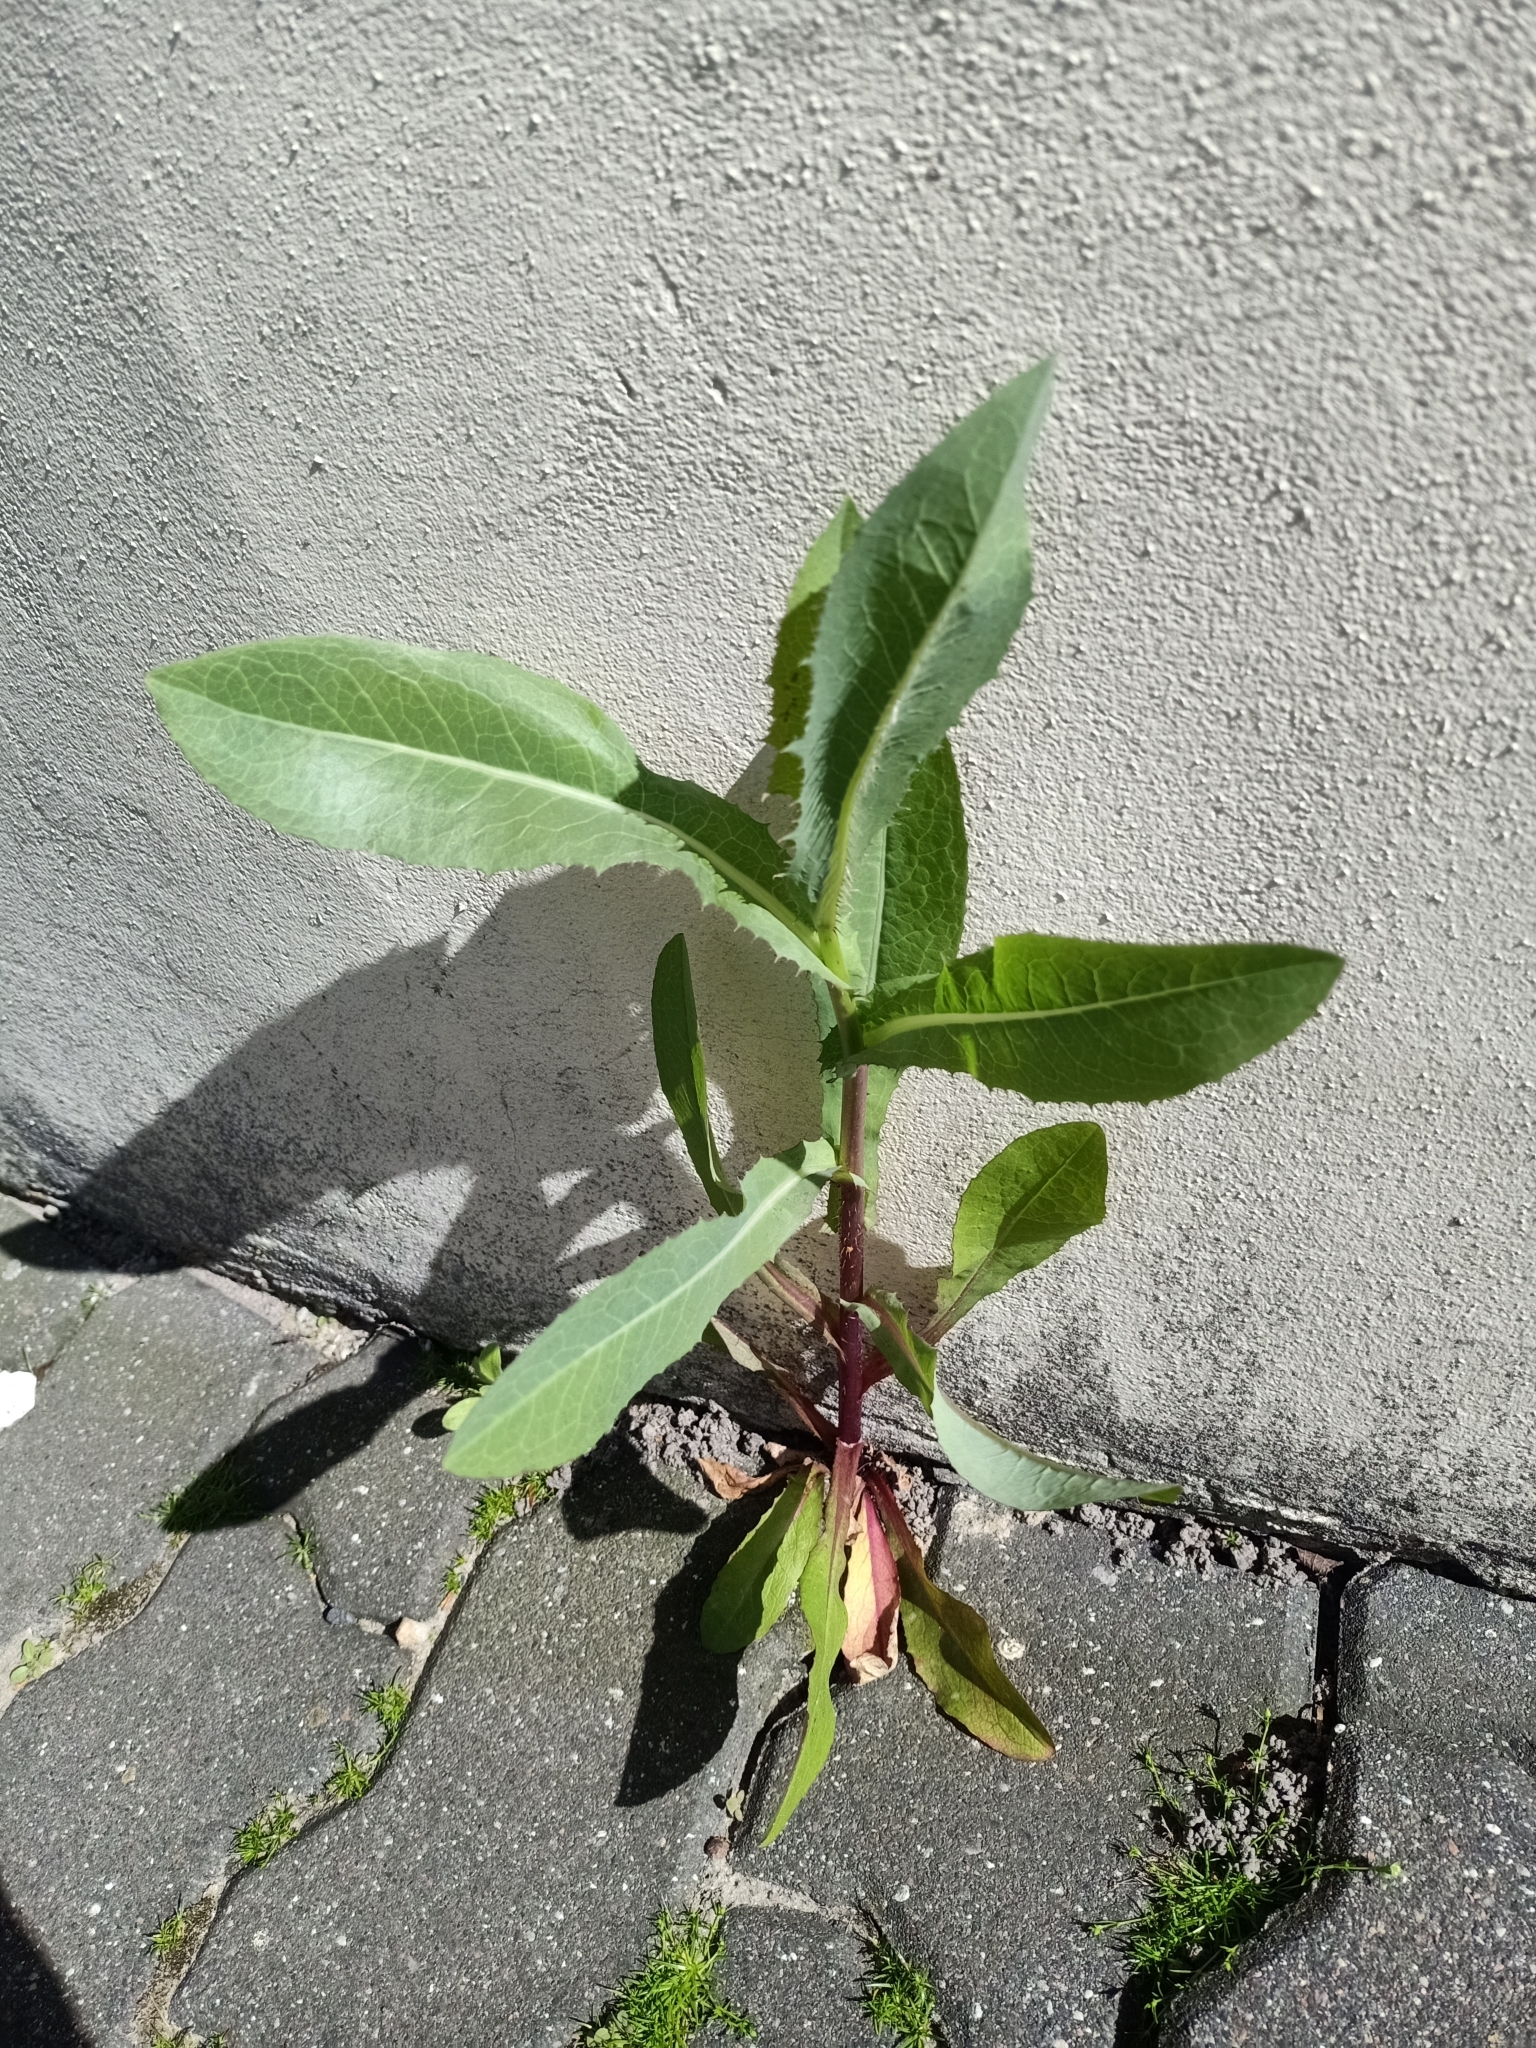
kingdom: Plantae
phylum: Tracheophyta
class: Magnoliopsida
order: Asterales
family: Asteraceae
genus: Lactuca
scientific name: Lactuca serriola
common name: Prickly lettuce
